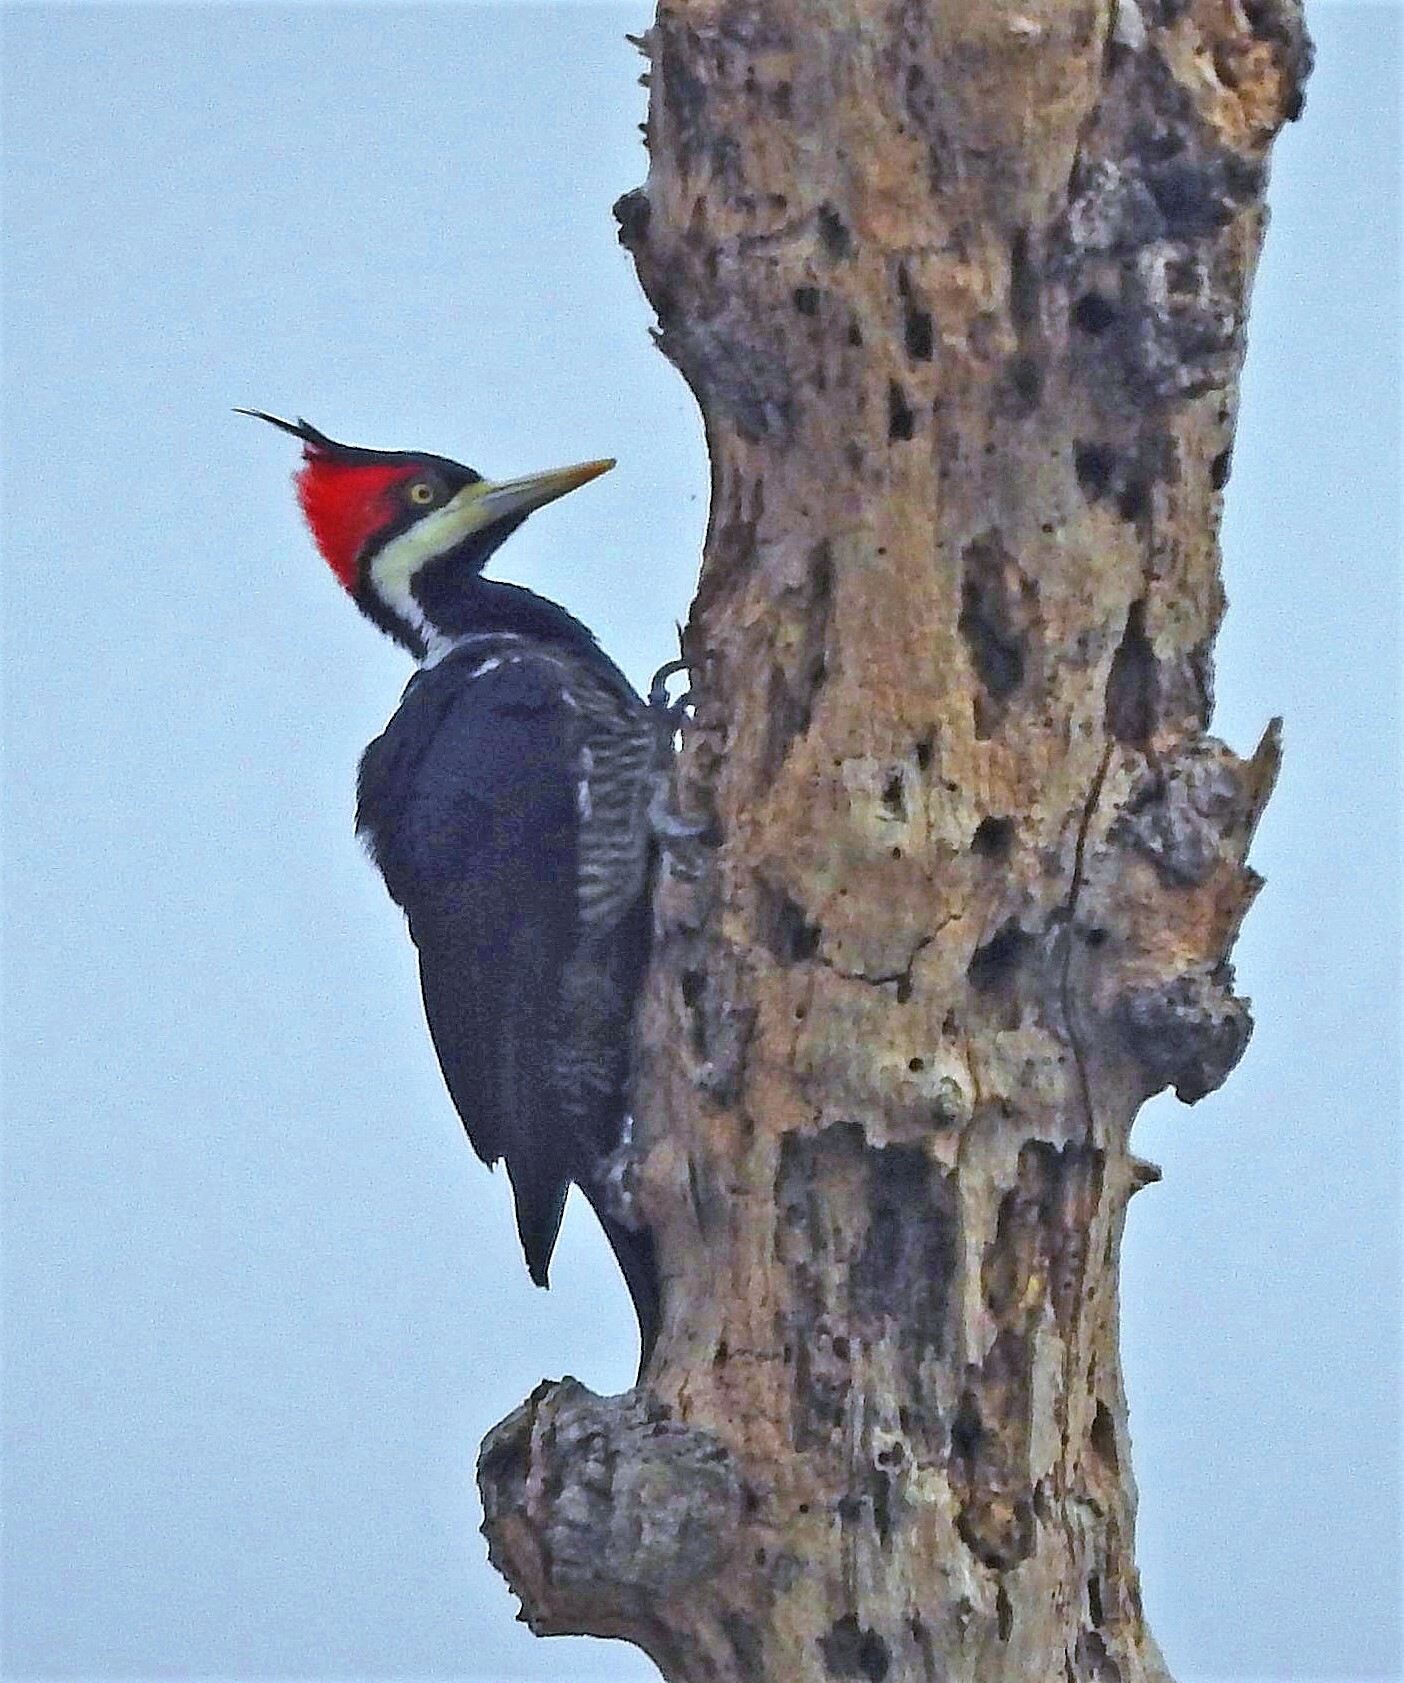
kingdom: Animalia
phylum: Chordata
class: Aves
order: Piciformes
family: Picidae
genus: Campephilus
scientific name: Campephilus melanoleucos
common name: Crimson-crested woodpecker
